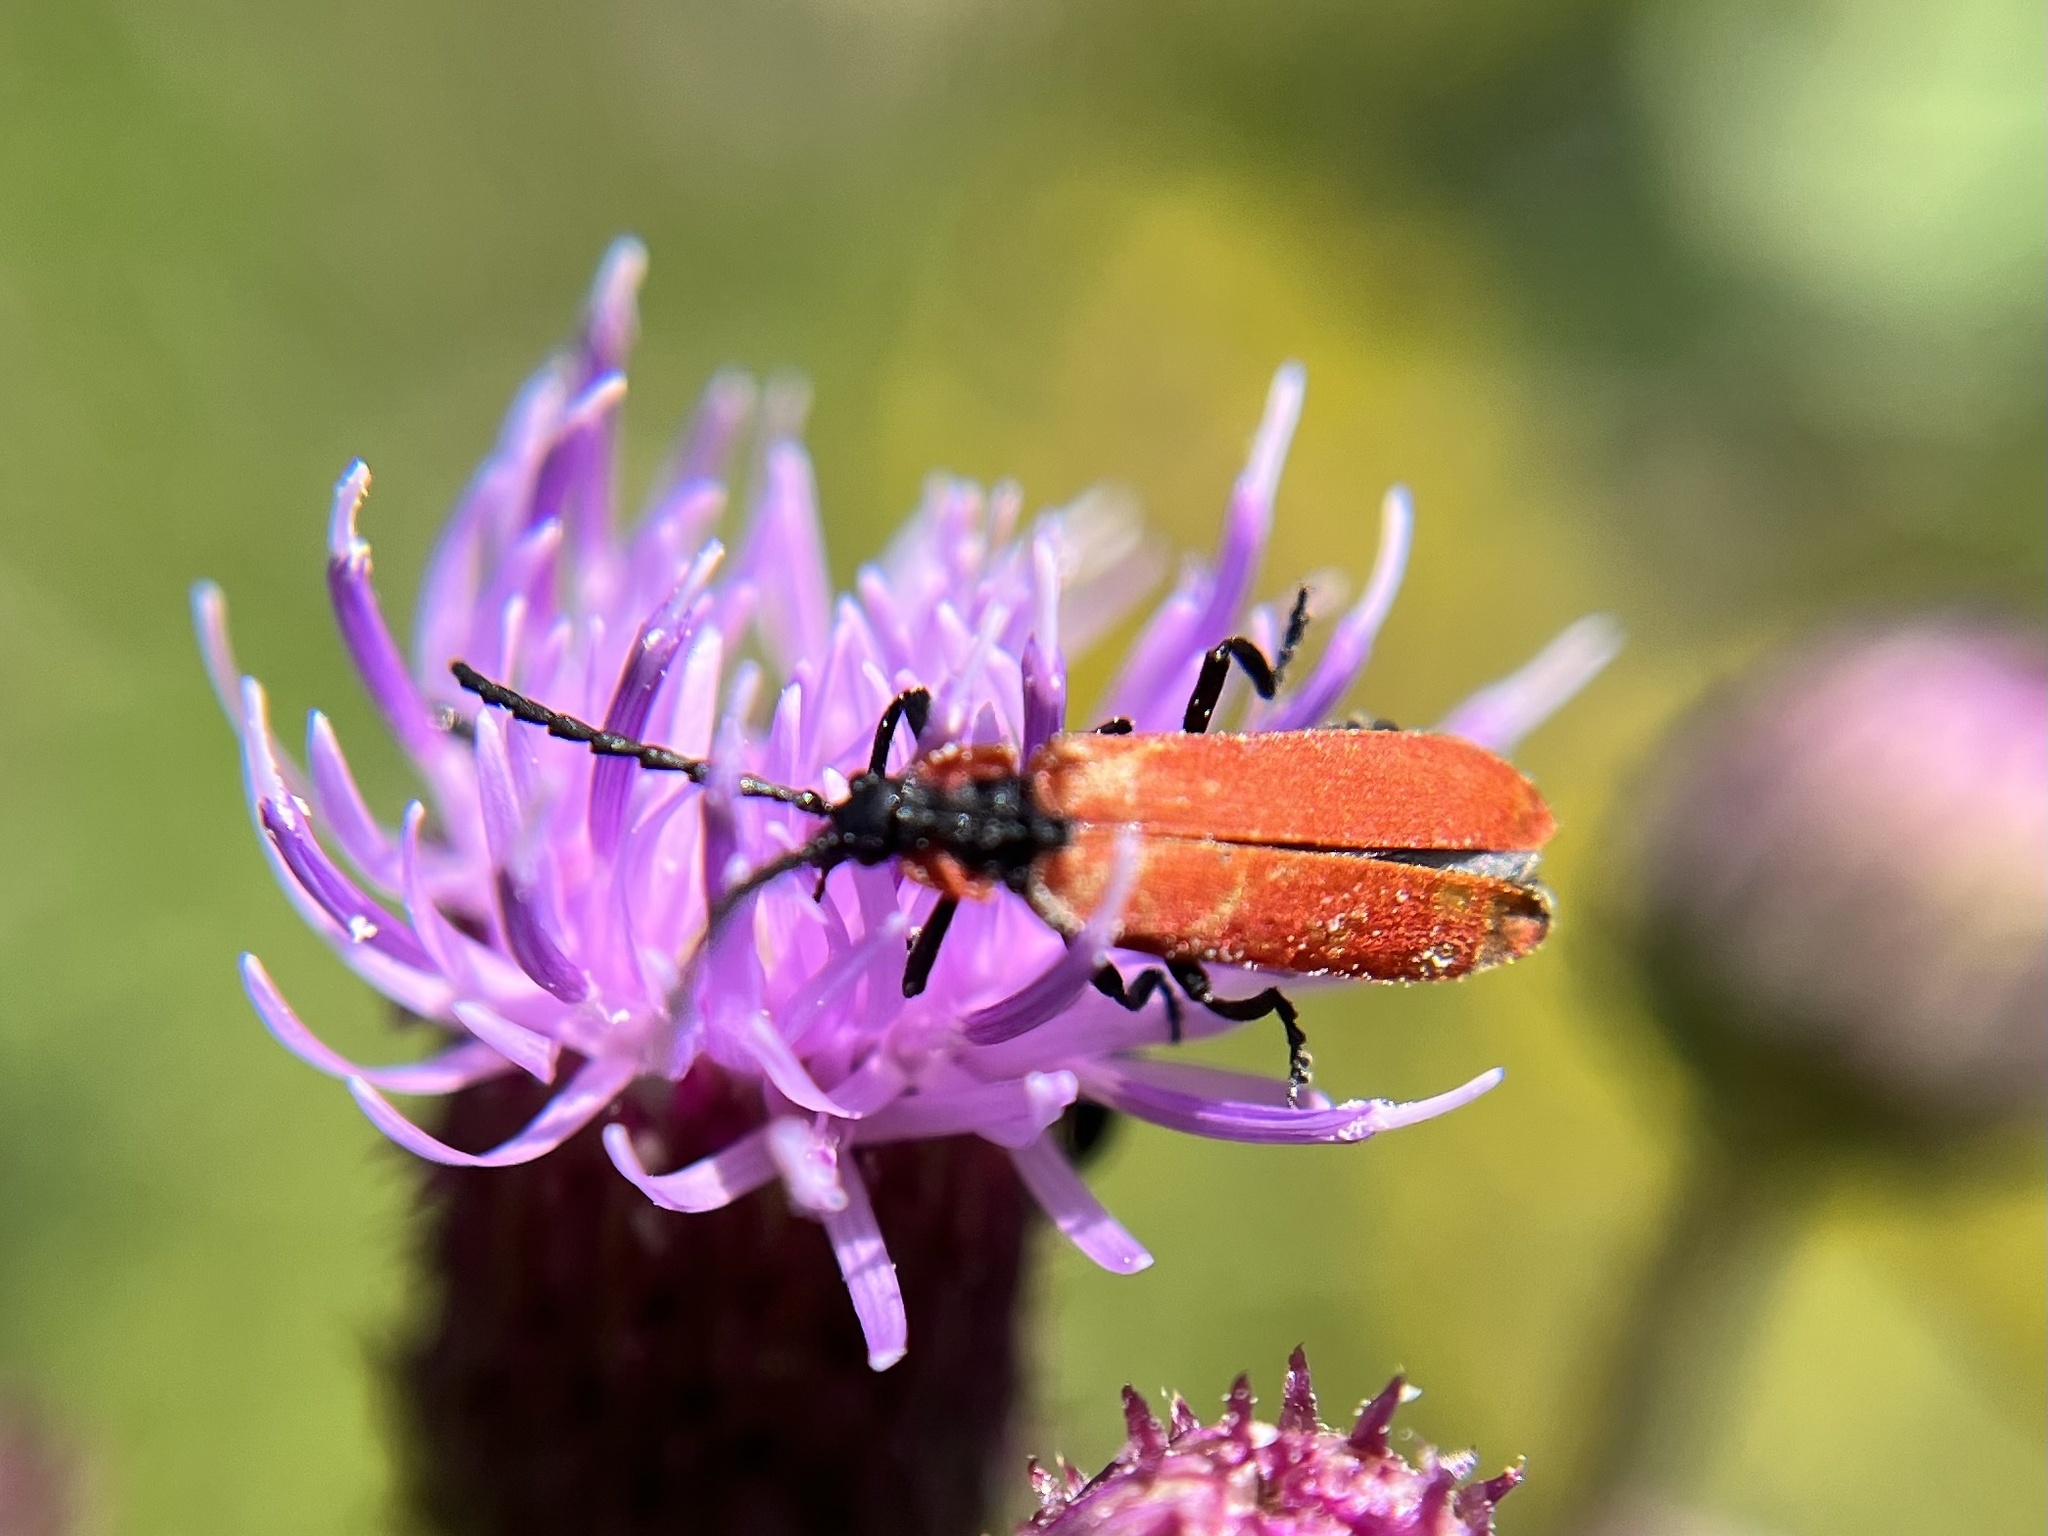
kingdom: Animalia
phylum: Arthropoda
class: Insecta
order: Coleoptera
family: Lycidae
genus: Lygistopterus
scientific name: Lygistopterus sanguineus
